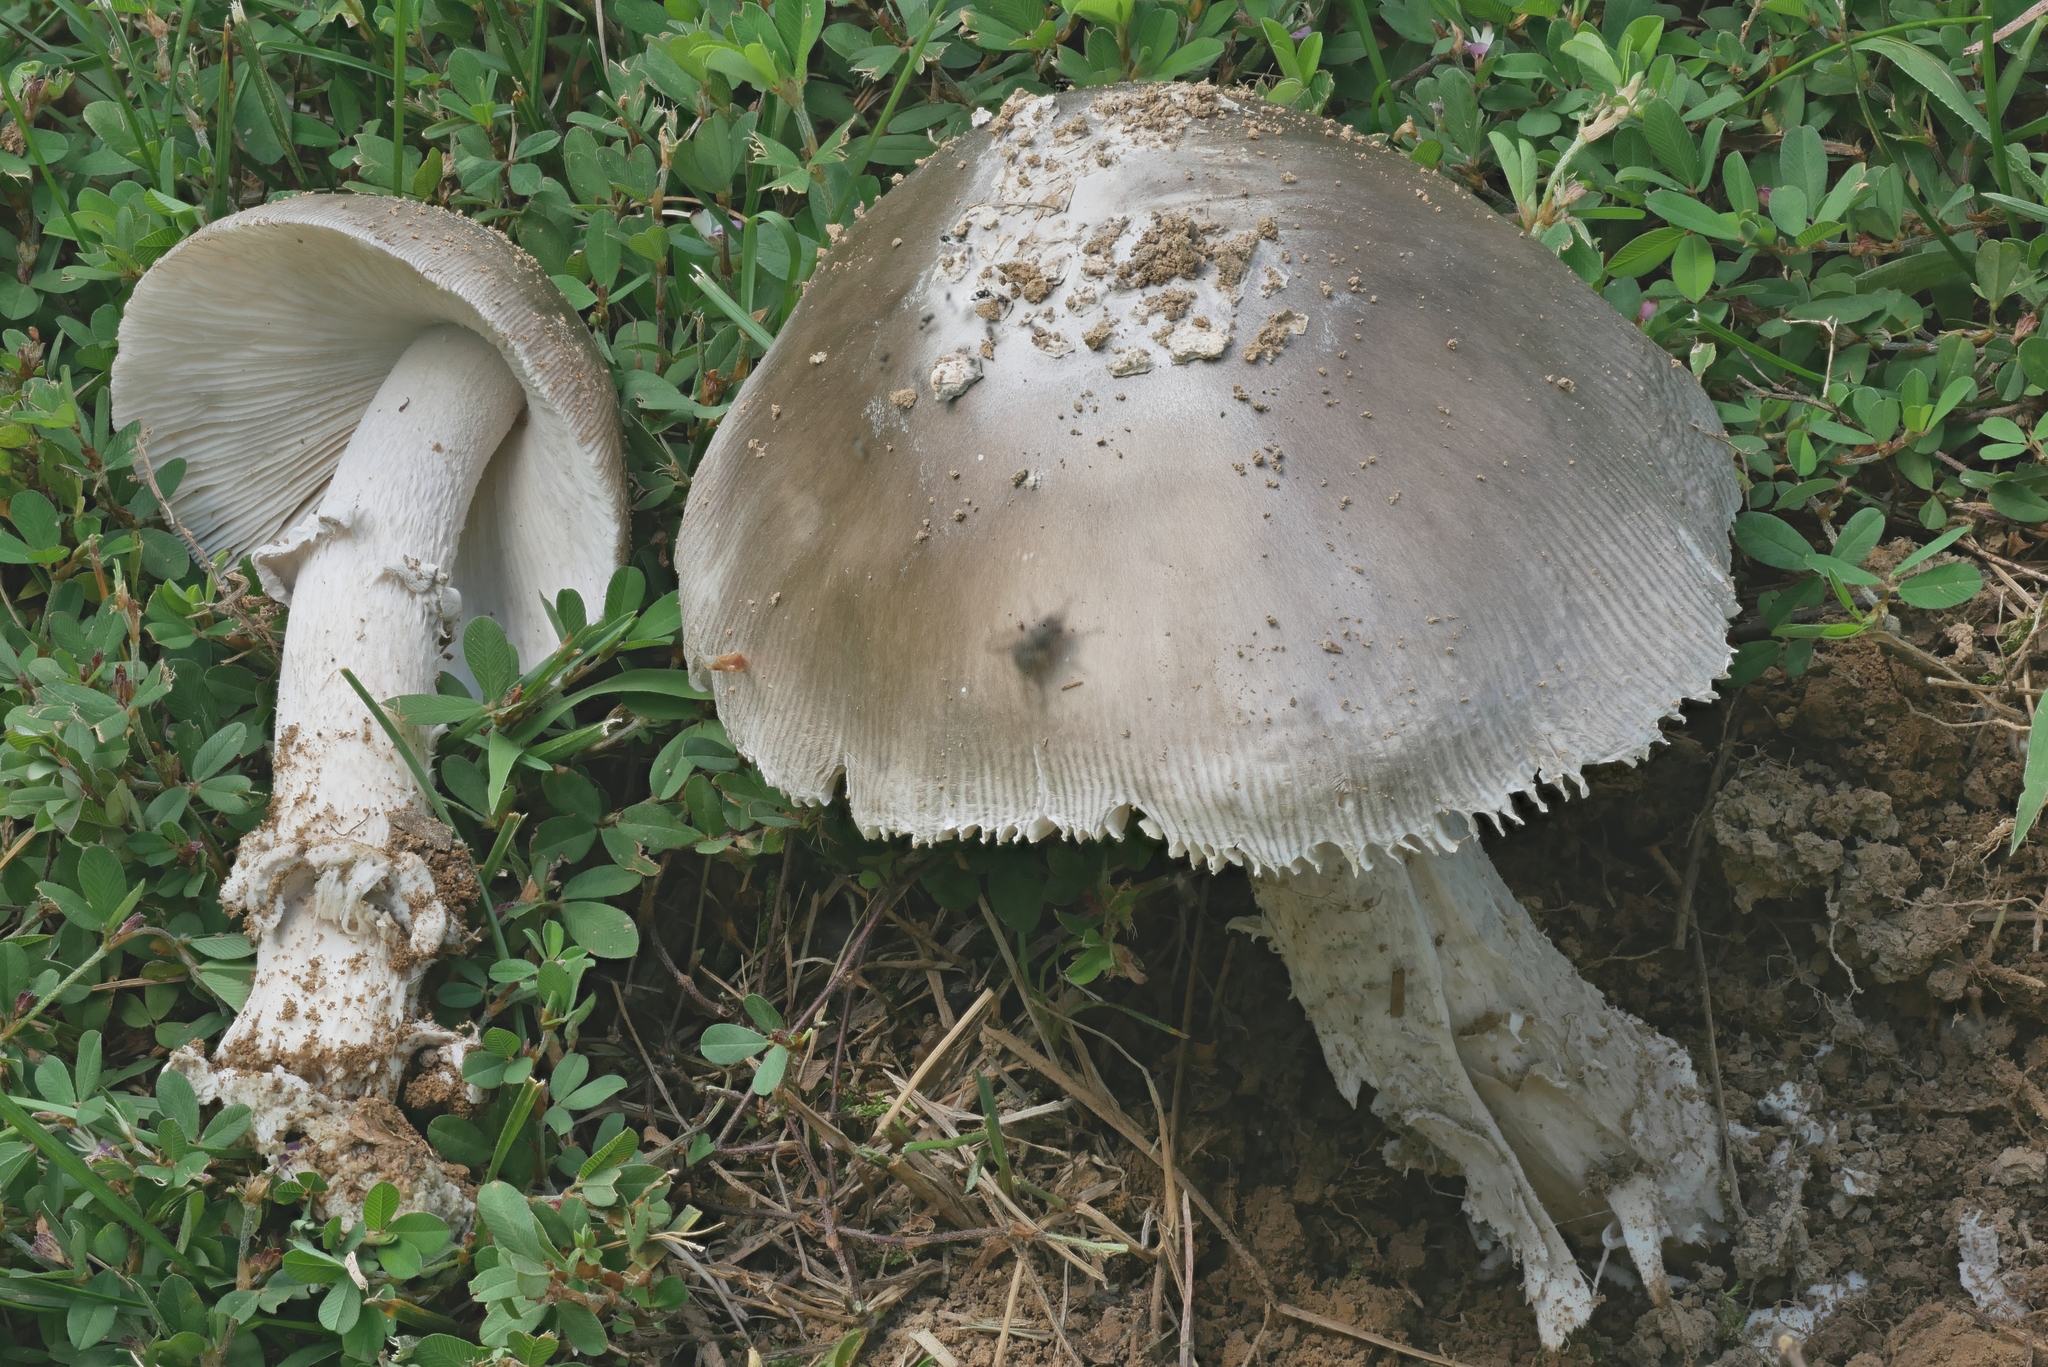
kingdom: Fungi
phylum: Basidiomycota
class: Agaricomycetes
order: Agaricales
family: Amanitaceae
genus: Amanita
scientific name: Amanita canescens
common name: Golden threads lepidella
